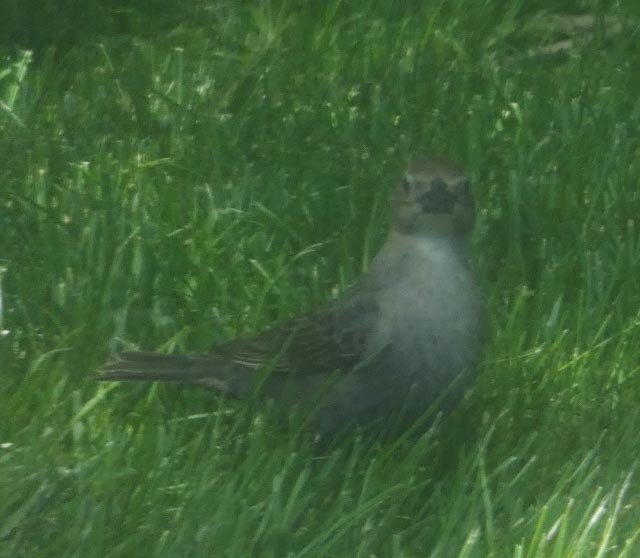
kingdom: Animalia
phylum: Chordata
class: Aves
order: Passeriformes
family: Icteridae
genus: Molothrus
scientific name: Molothrus ater
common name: Brown-headed cowbird
